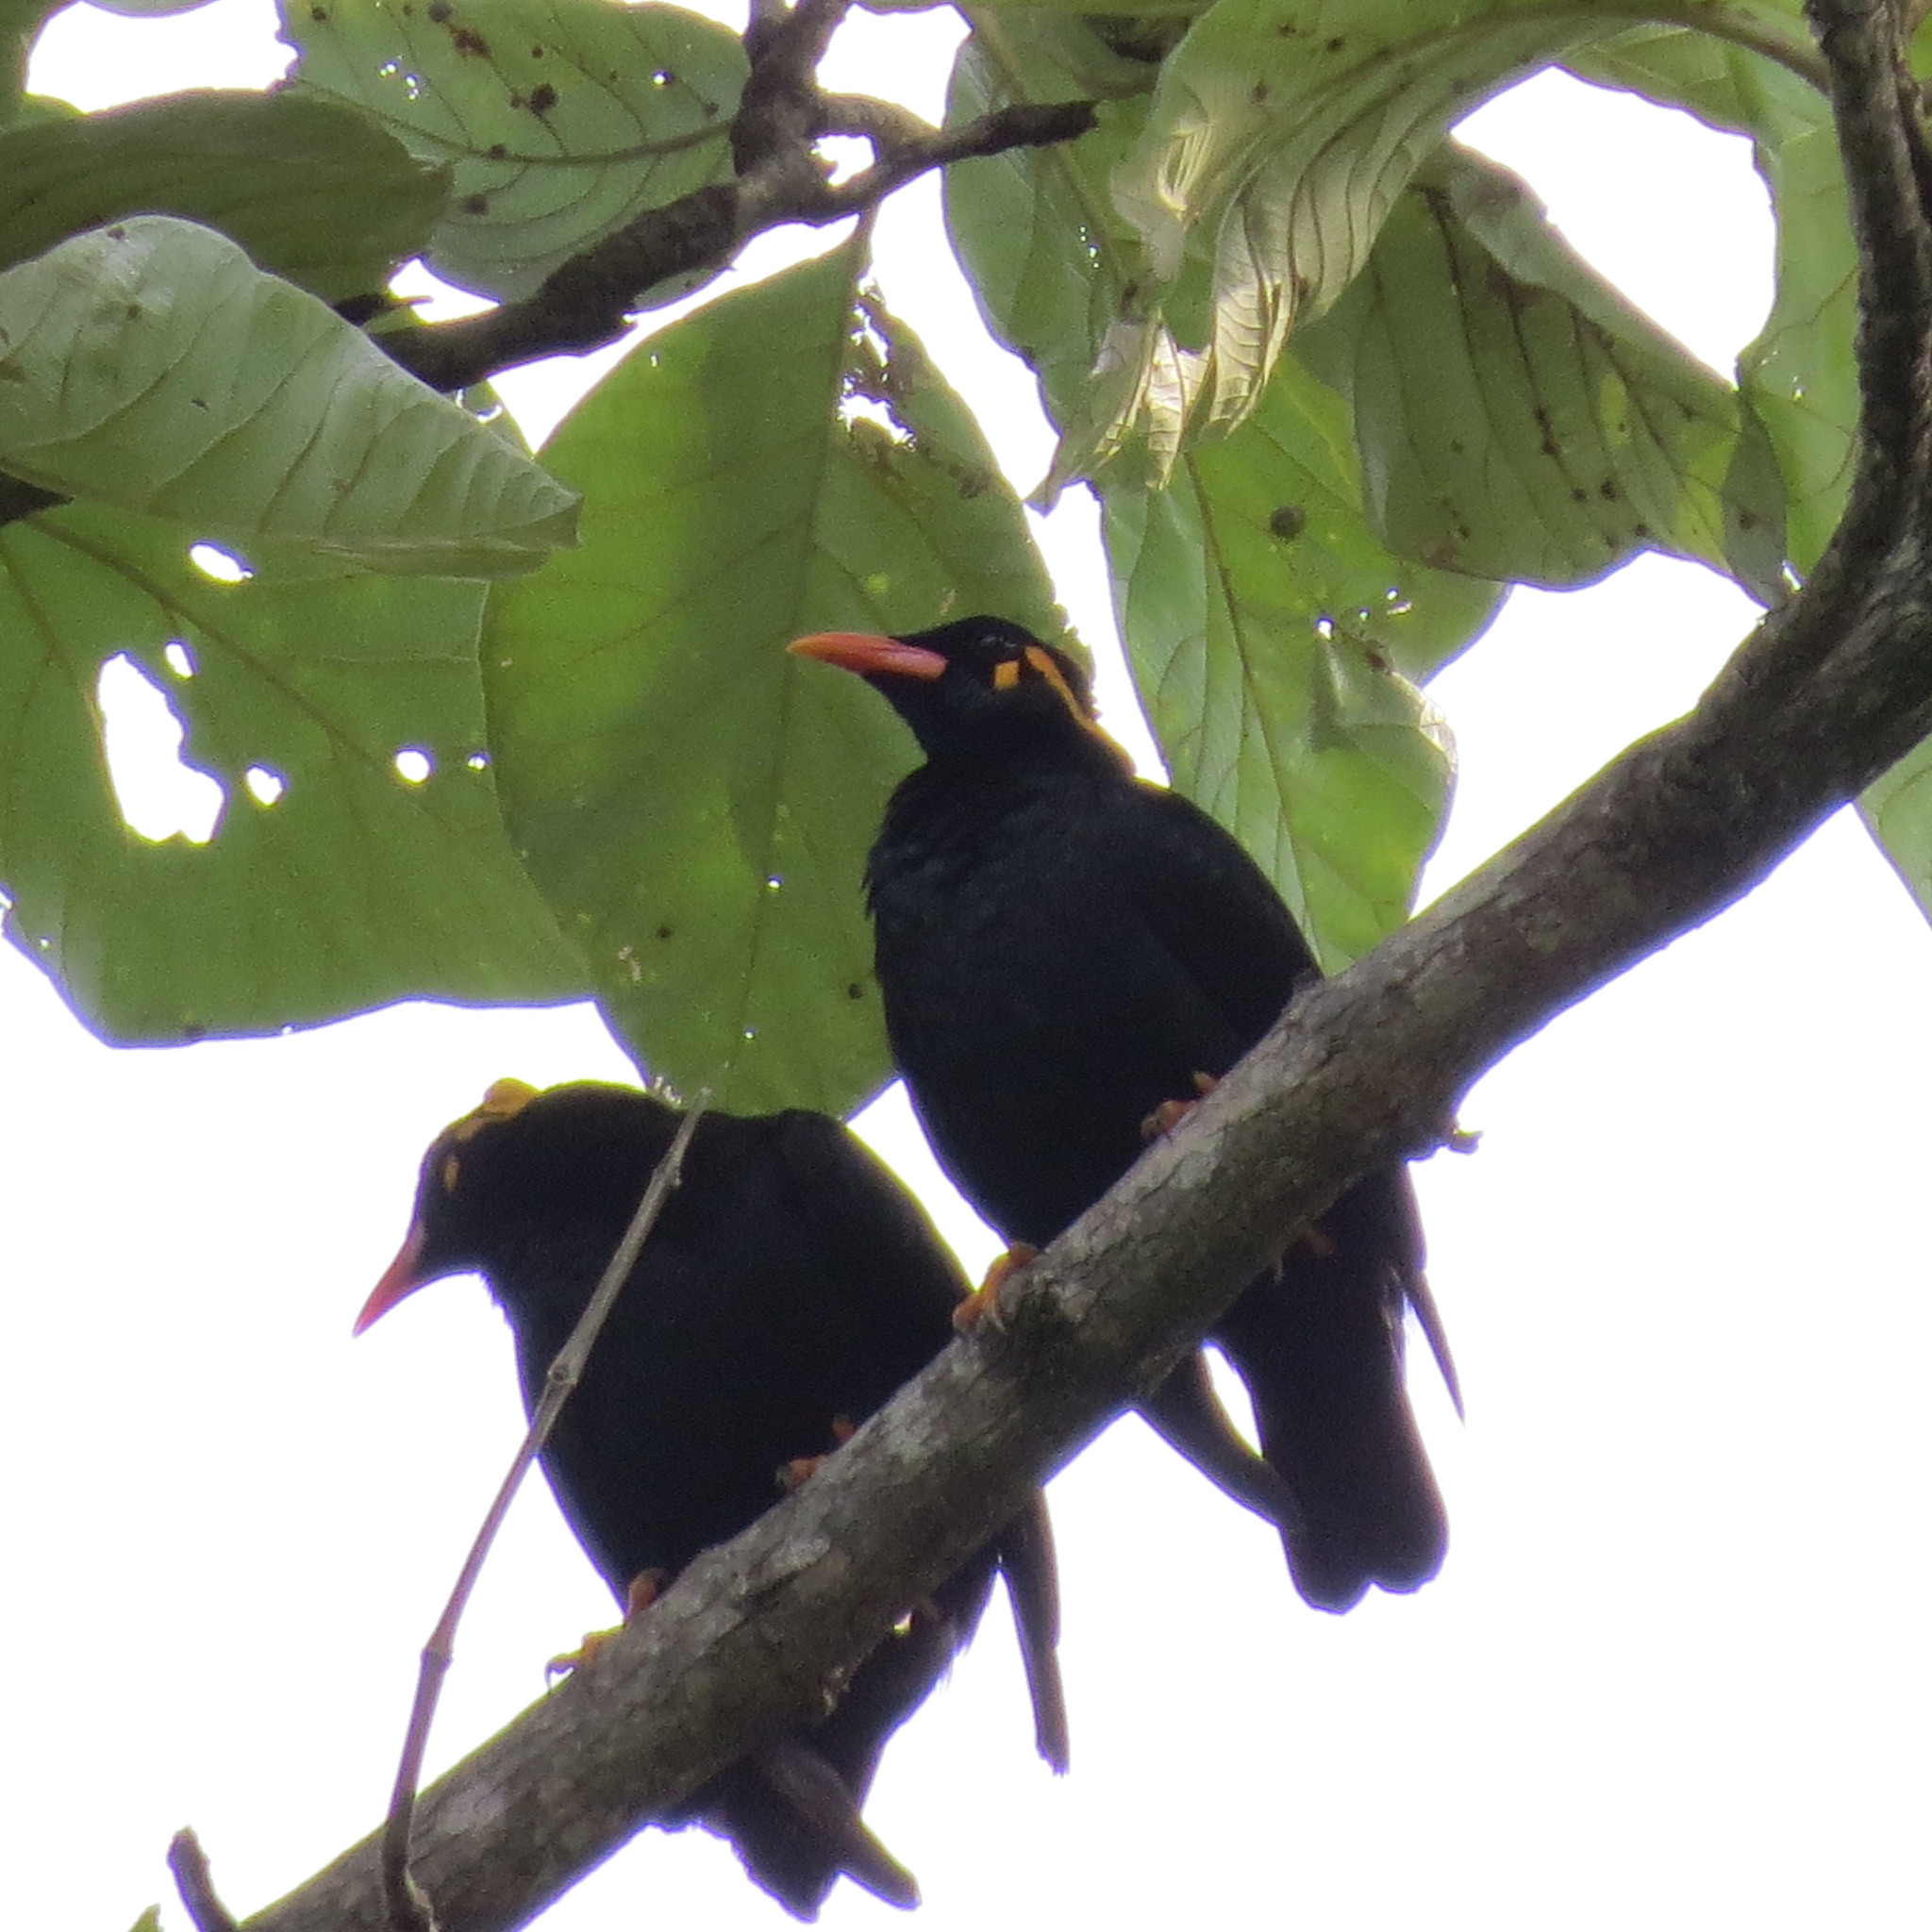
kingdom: Animalia
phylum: Chordata
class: Aves
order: Passeriformes
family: Sturnidae
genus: Gracula
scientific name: Gracula indica
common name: Southern hill myna
